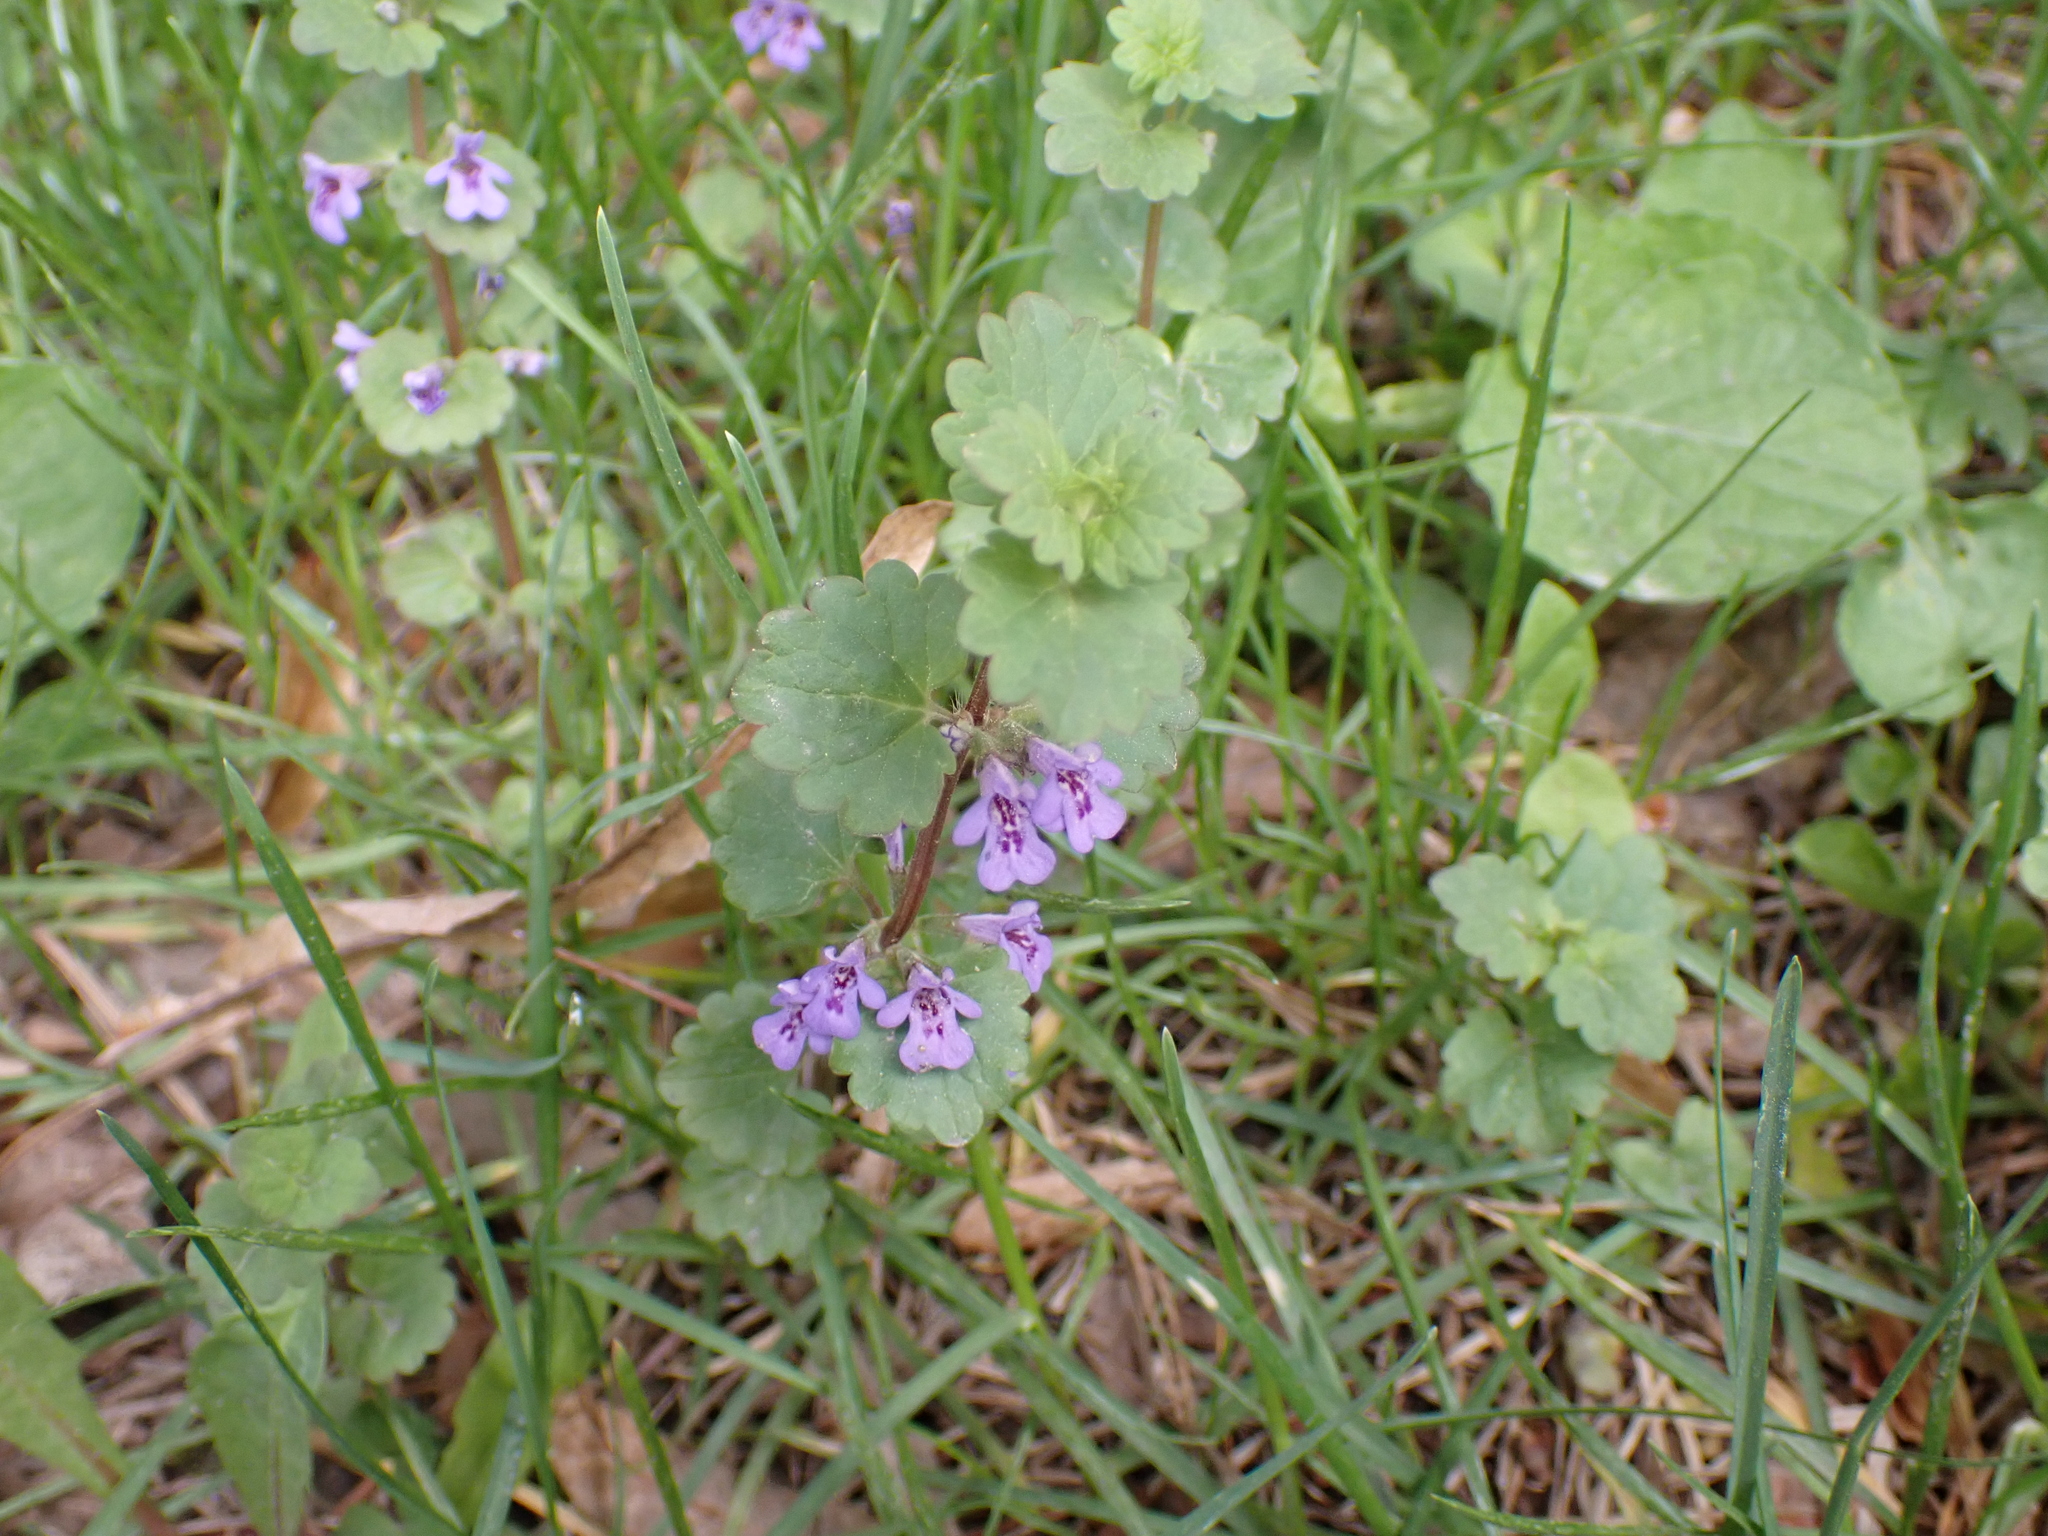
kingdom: Plantae
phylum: Tracheophyta
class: Magnoliopsida
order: Lamiales
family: Lamiaceae
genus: Glechoma
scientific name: Glechoma hederacea
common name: Ground ivy
